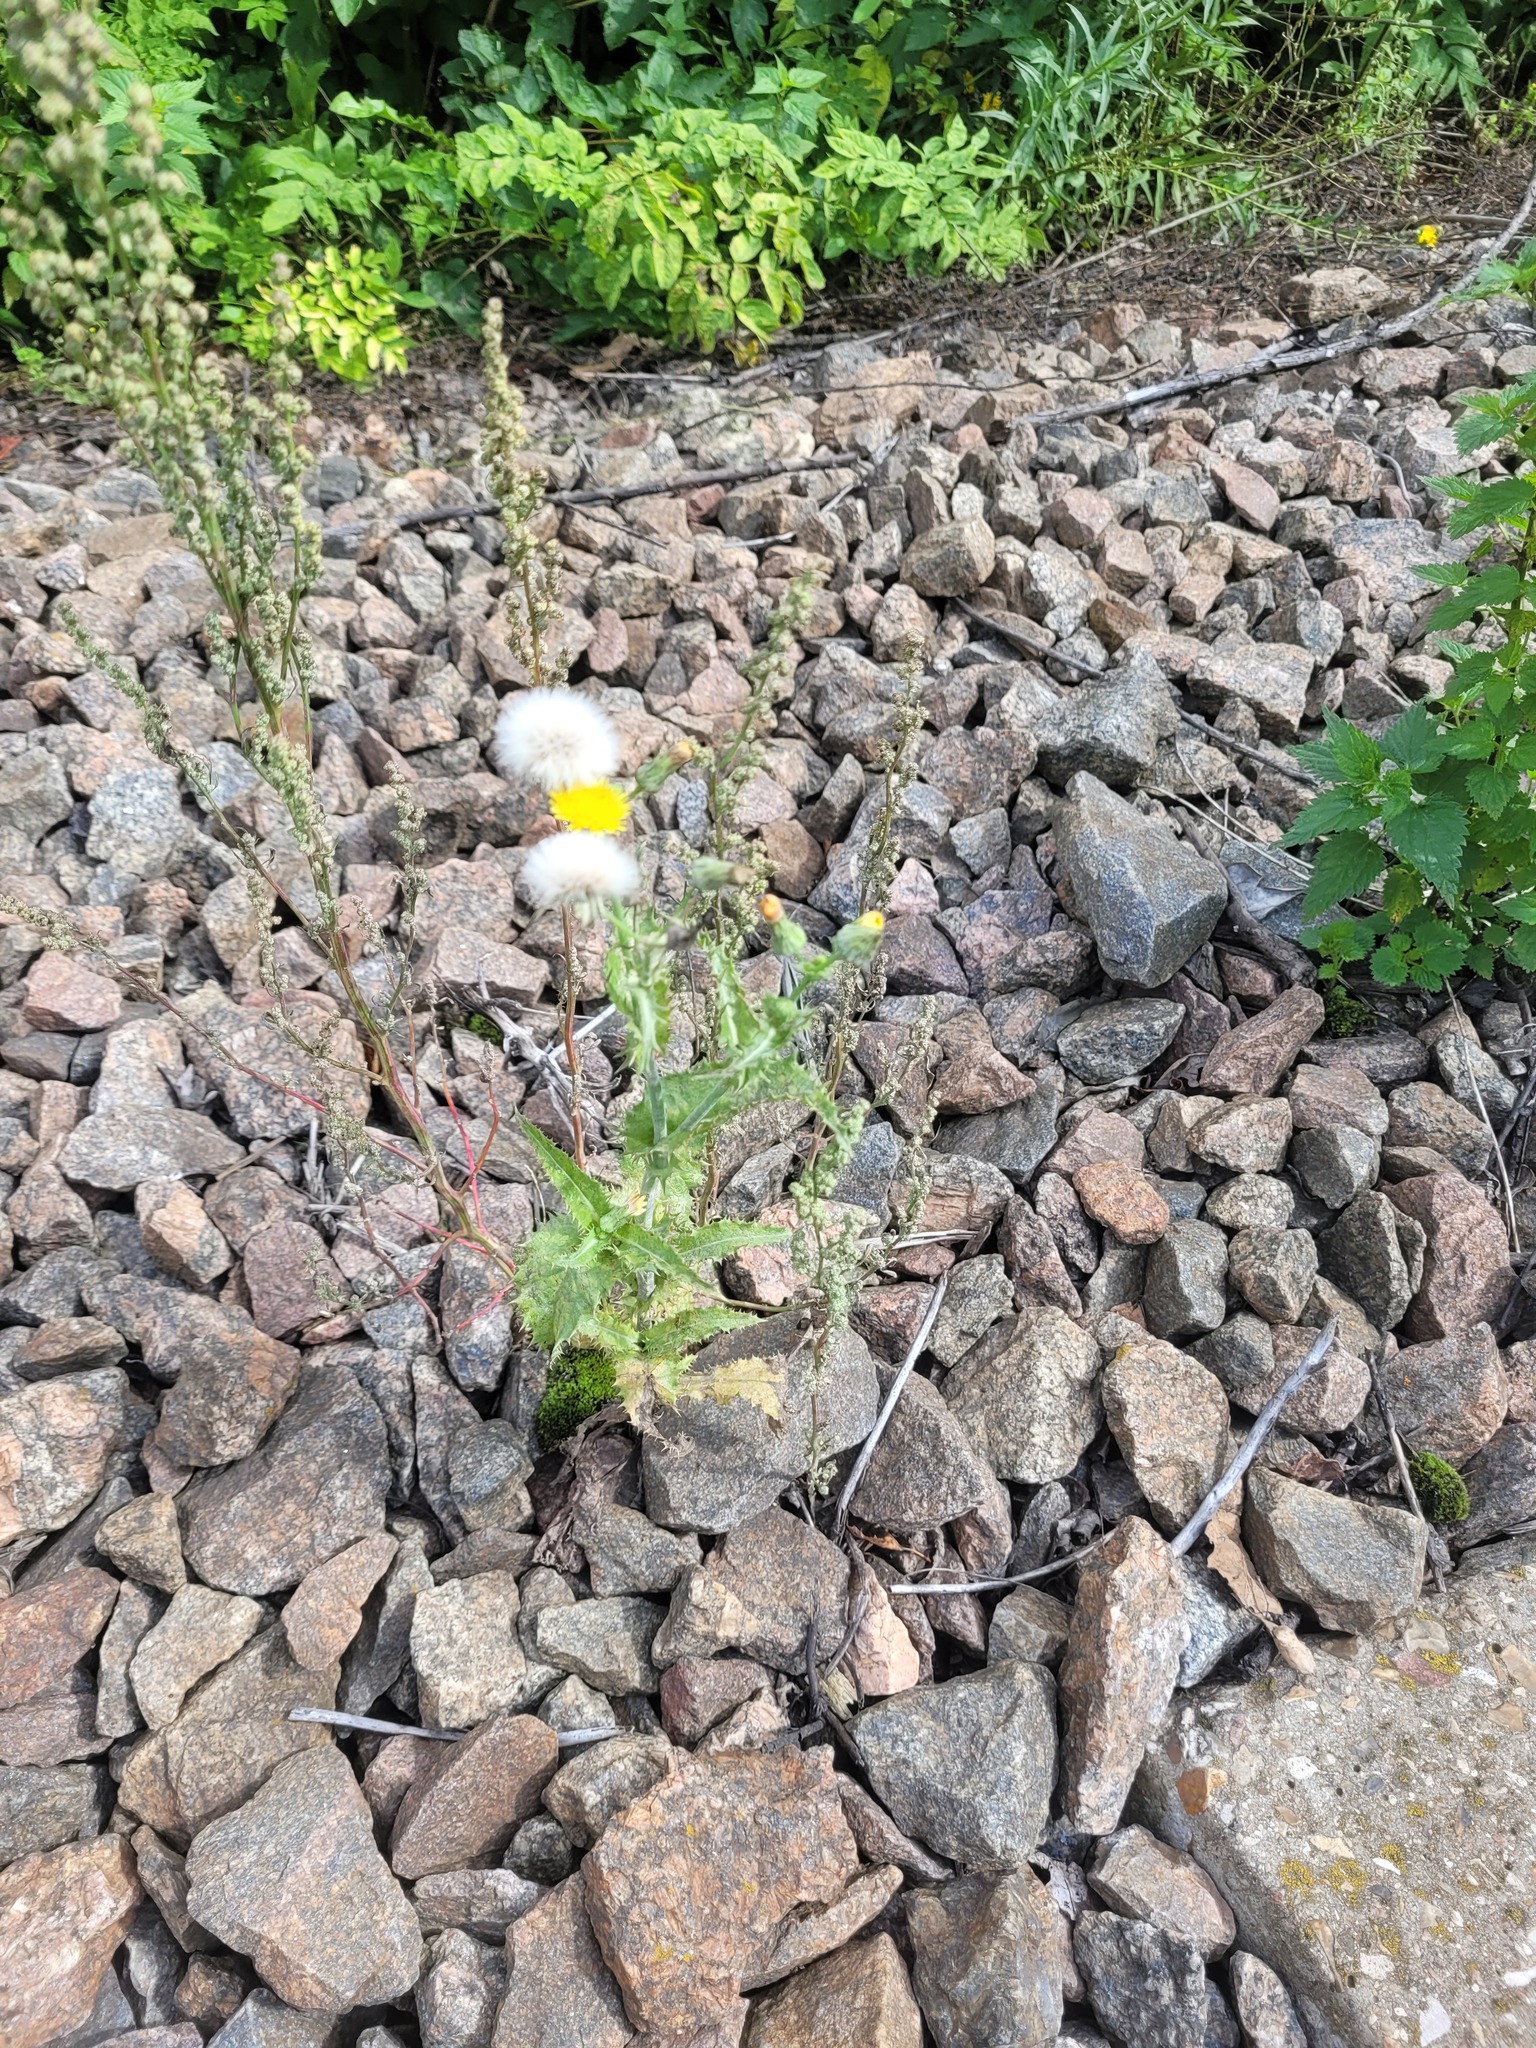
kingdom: Plantae
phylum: Tracheophyta
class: Magnoliopsida
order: Asterales
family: Asteraceae
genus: Sonchus
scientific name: Sonchus asper
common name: Prickly sow-thistle
